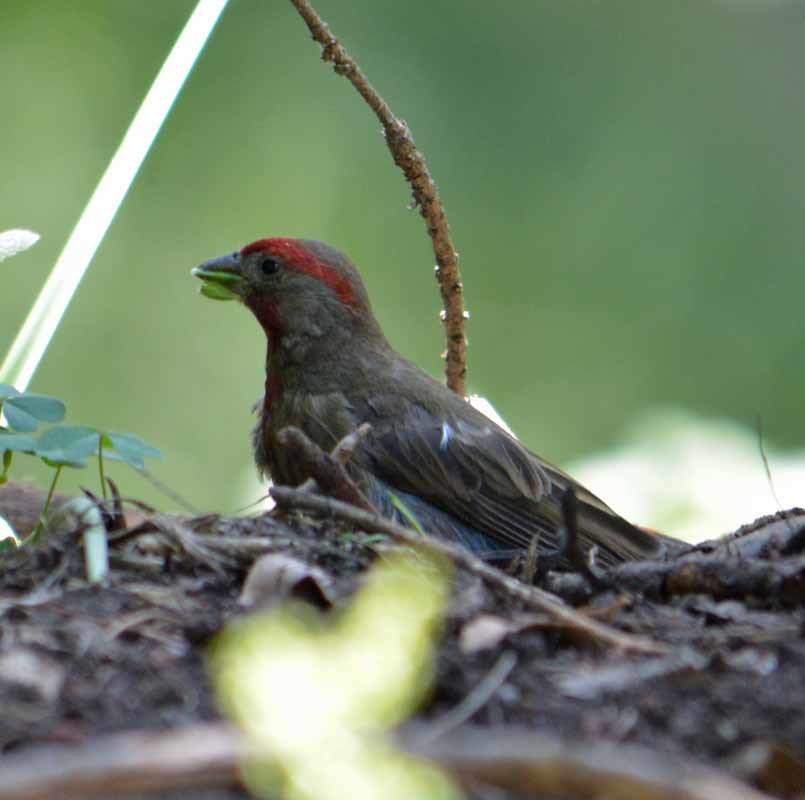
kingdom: Animalia
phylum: Chordata
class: Aves
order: Passeriformes
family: Fringillidae
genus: Haemorhous
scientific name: Haemorhous mexicanus
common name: House finch
